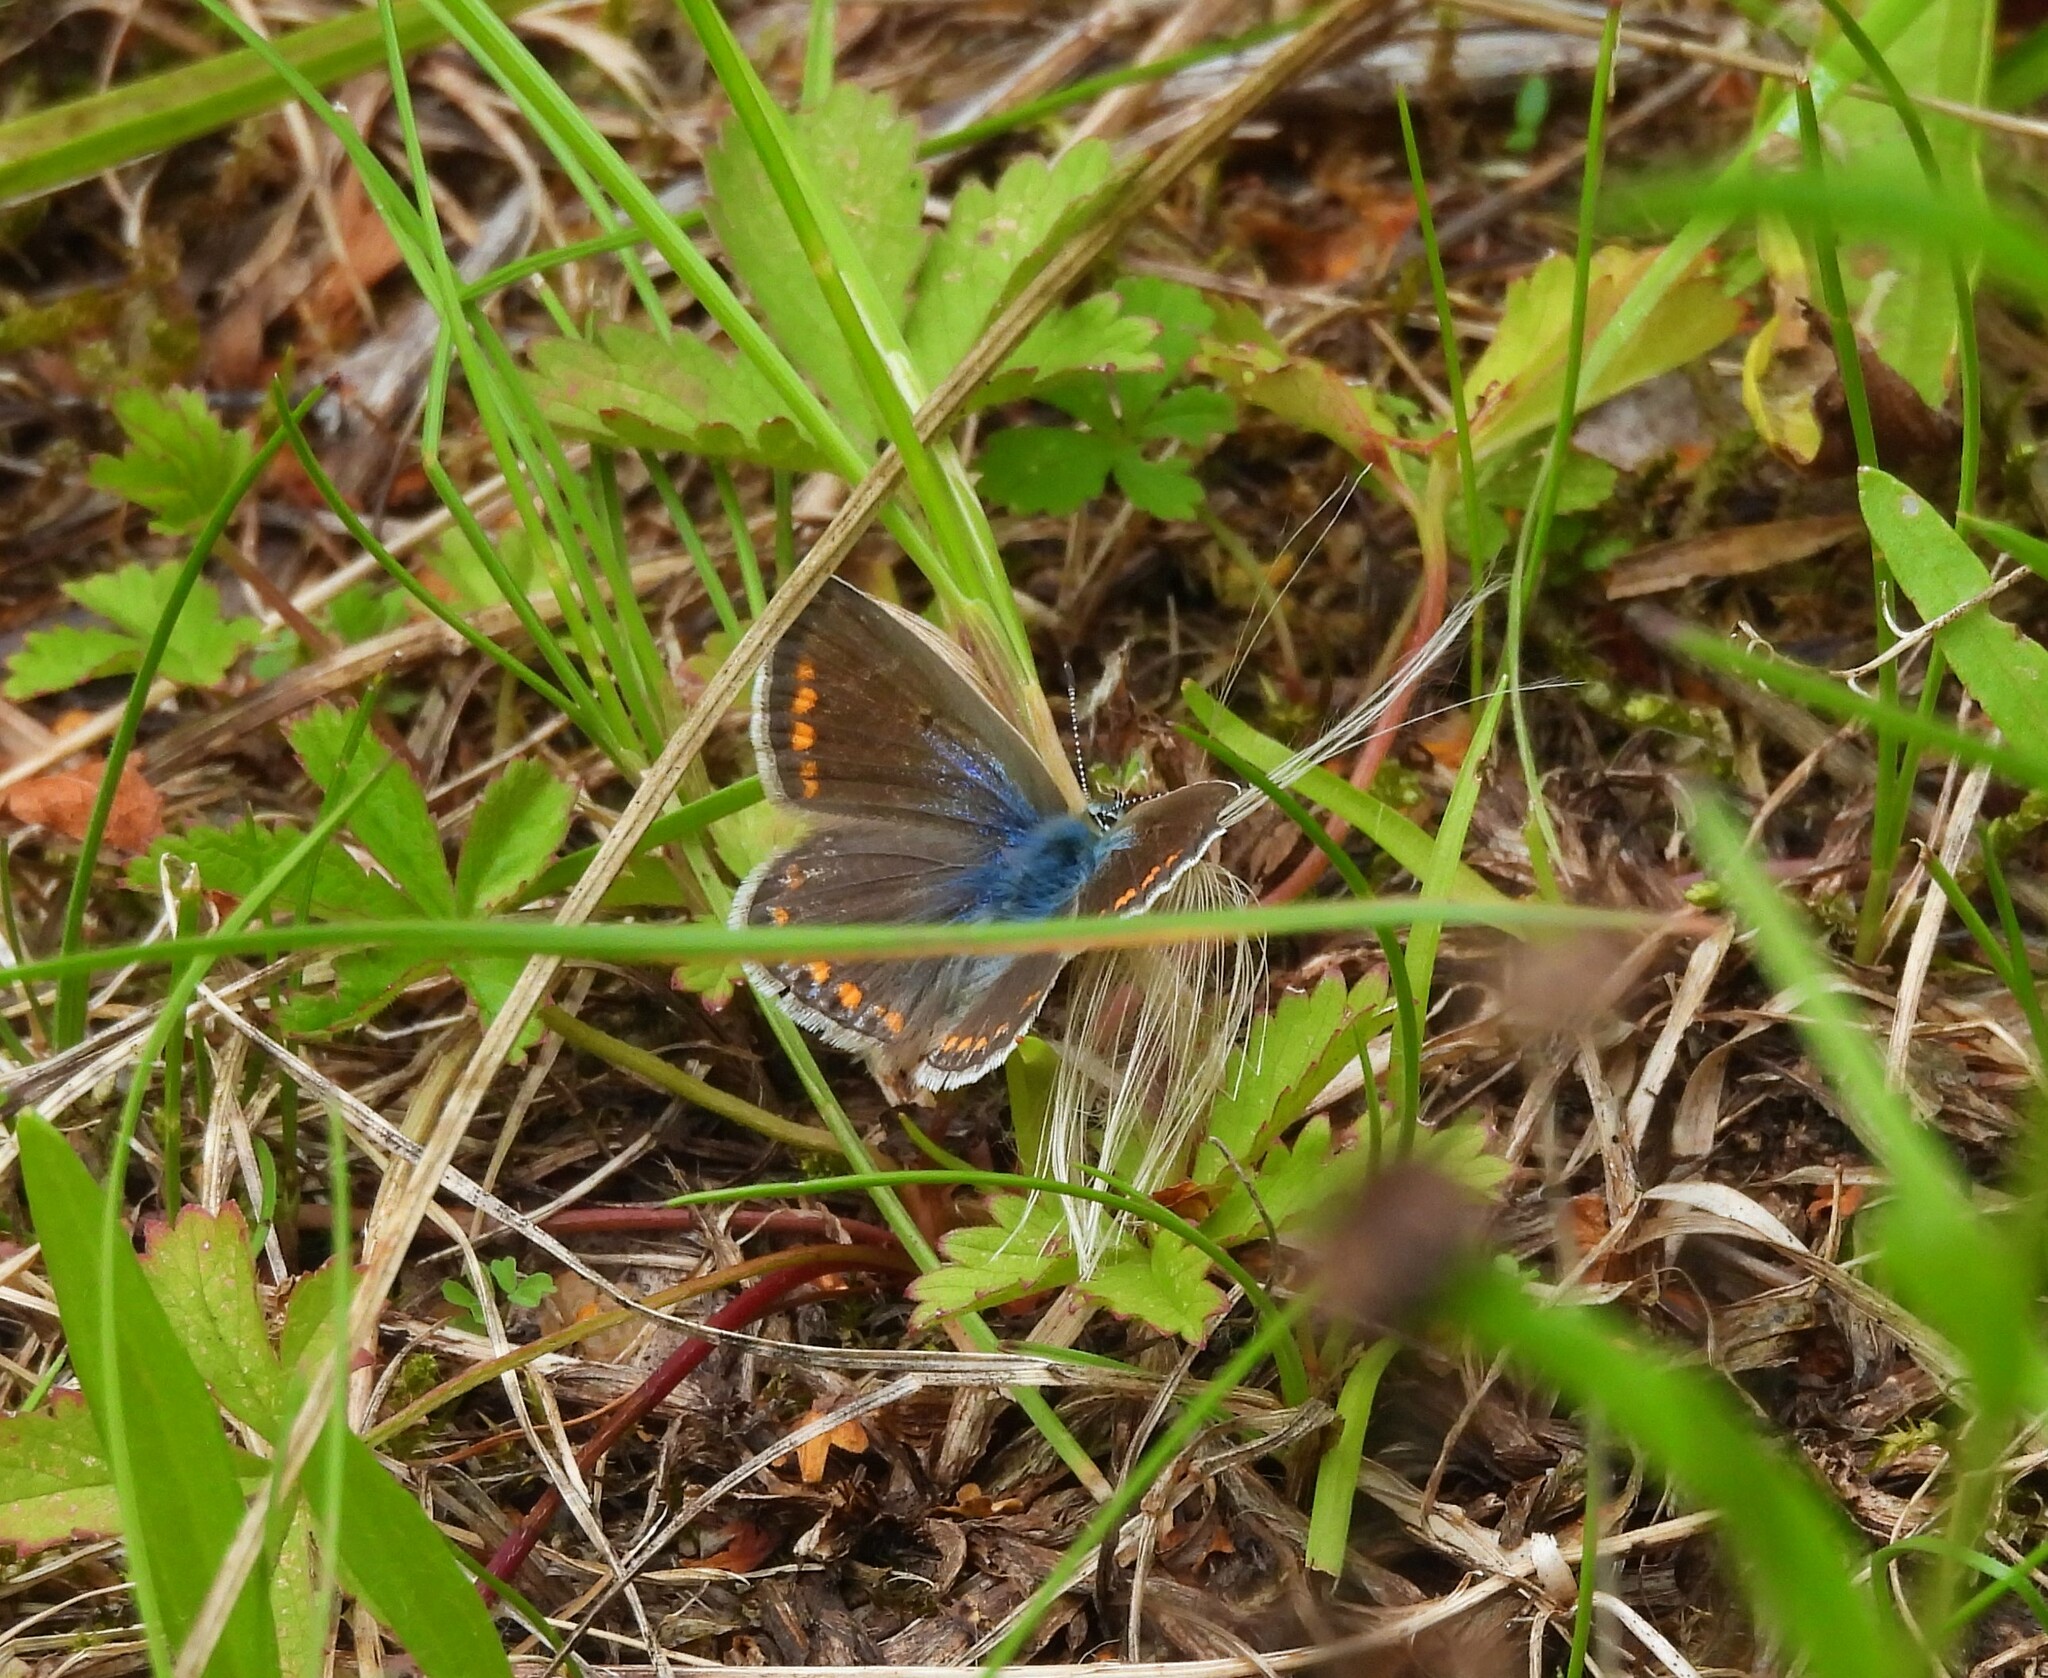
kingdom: Animalia
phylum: Arthropoda
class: Insecta
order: Lepidoptera
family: Lycaenidae
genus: Polyommatus
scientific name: Polyommatus icarus
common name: Common blue
